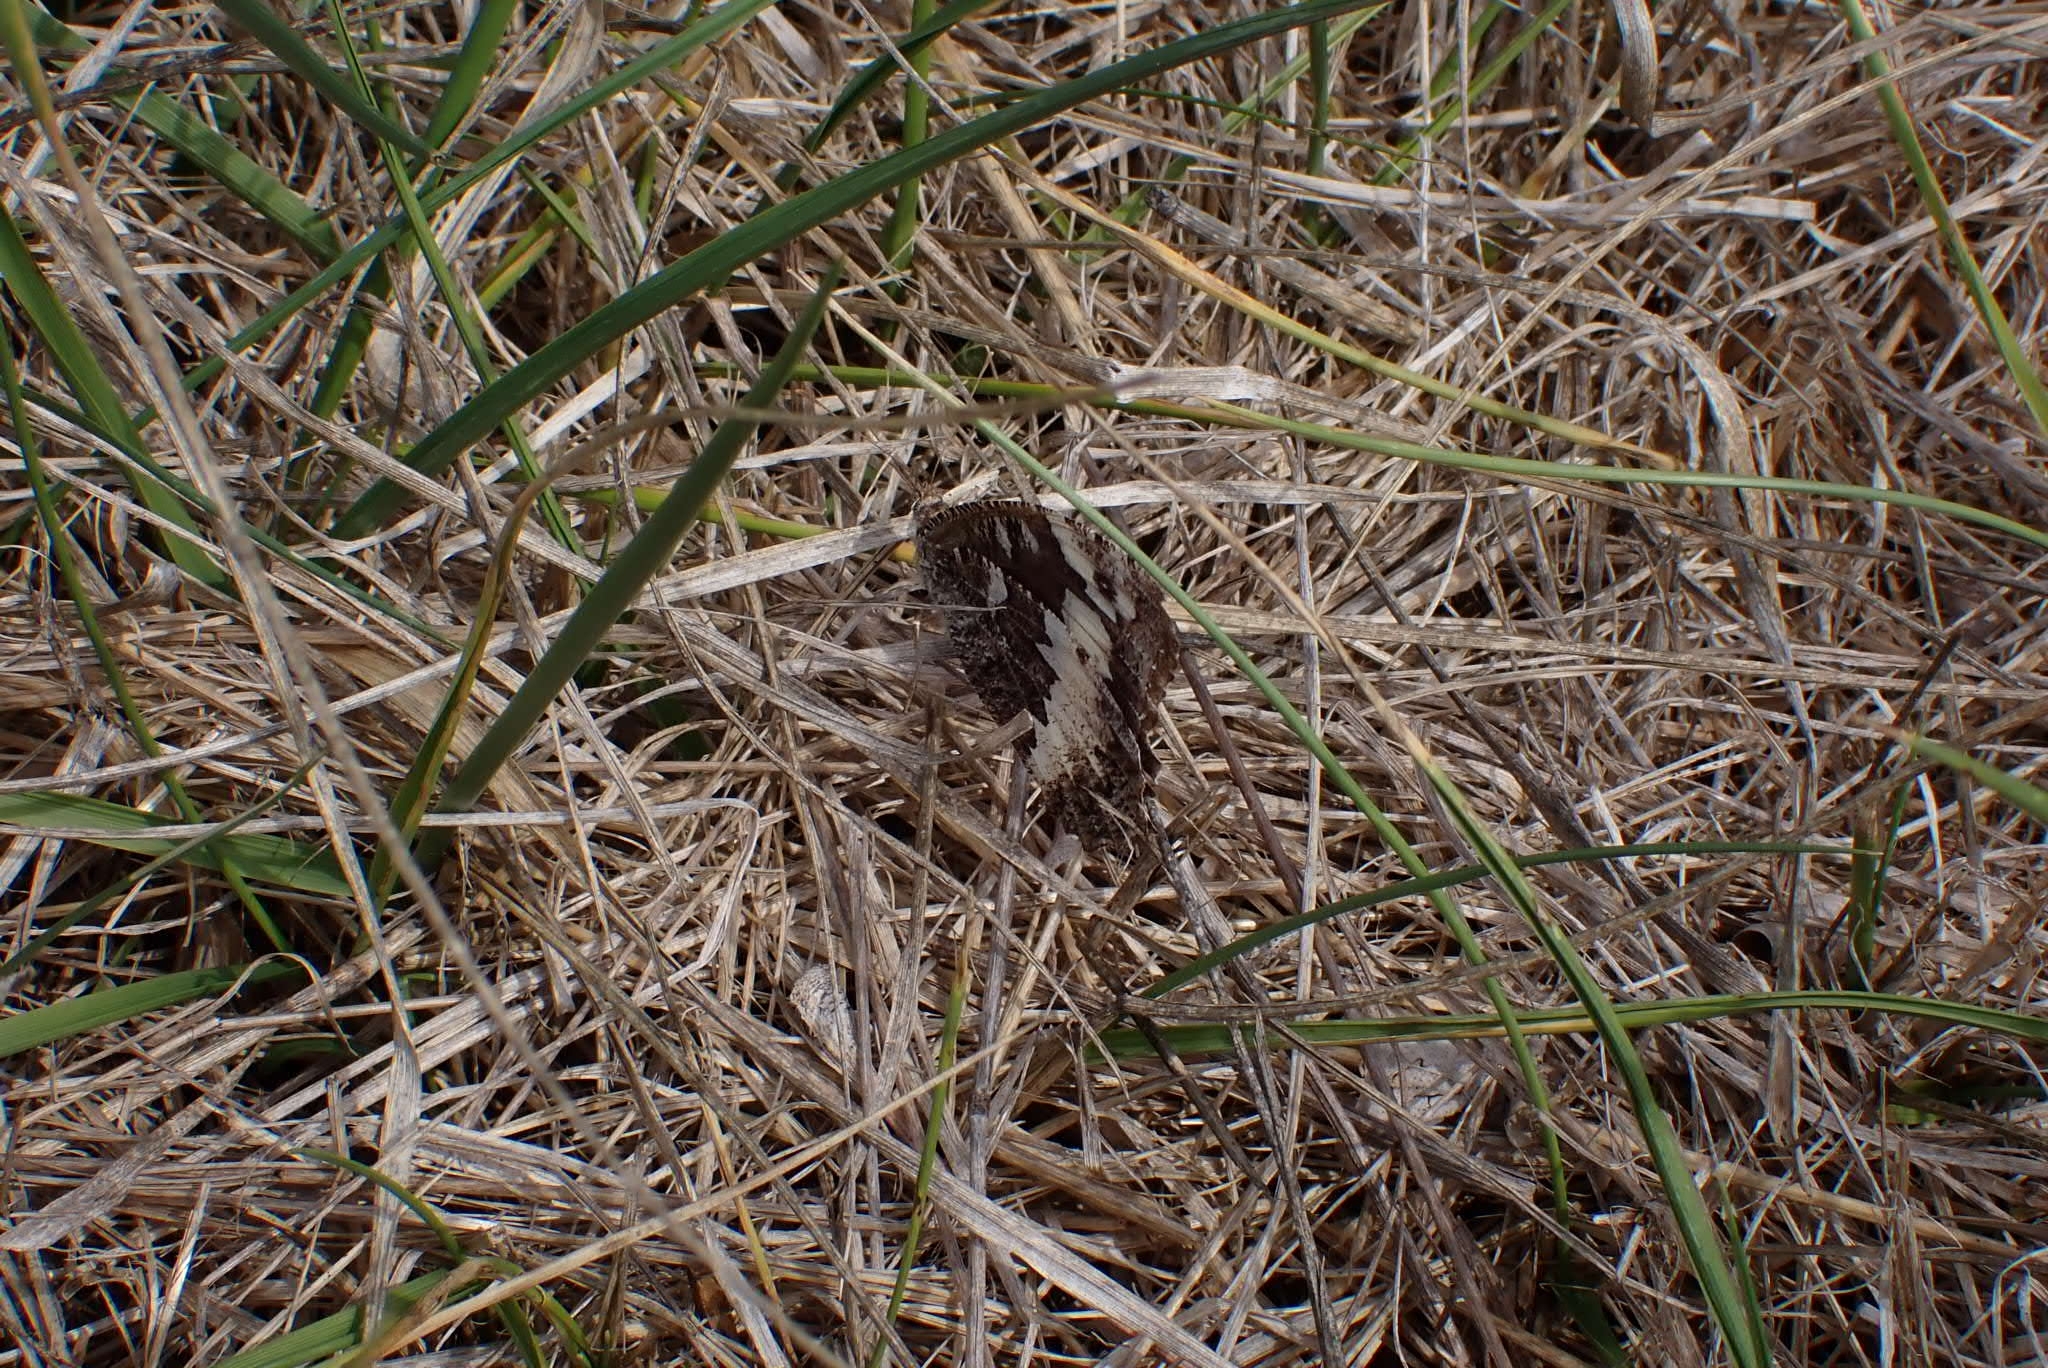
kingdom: Animalia
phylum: Arthropoda
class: Insecta
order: Lepidoptera
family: Lycaenidae
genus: Loweia
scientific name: Loweia tityrus
